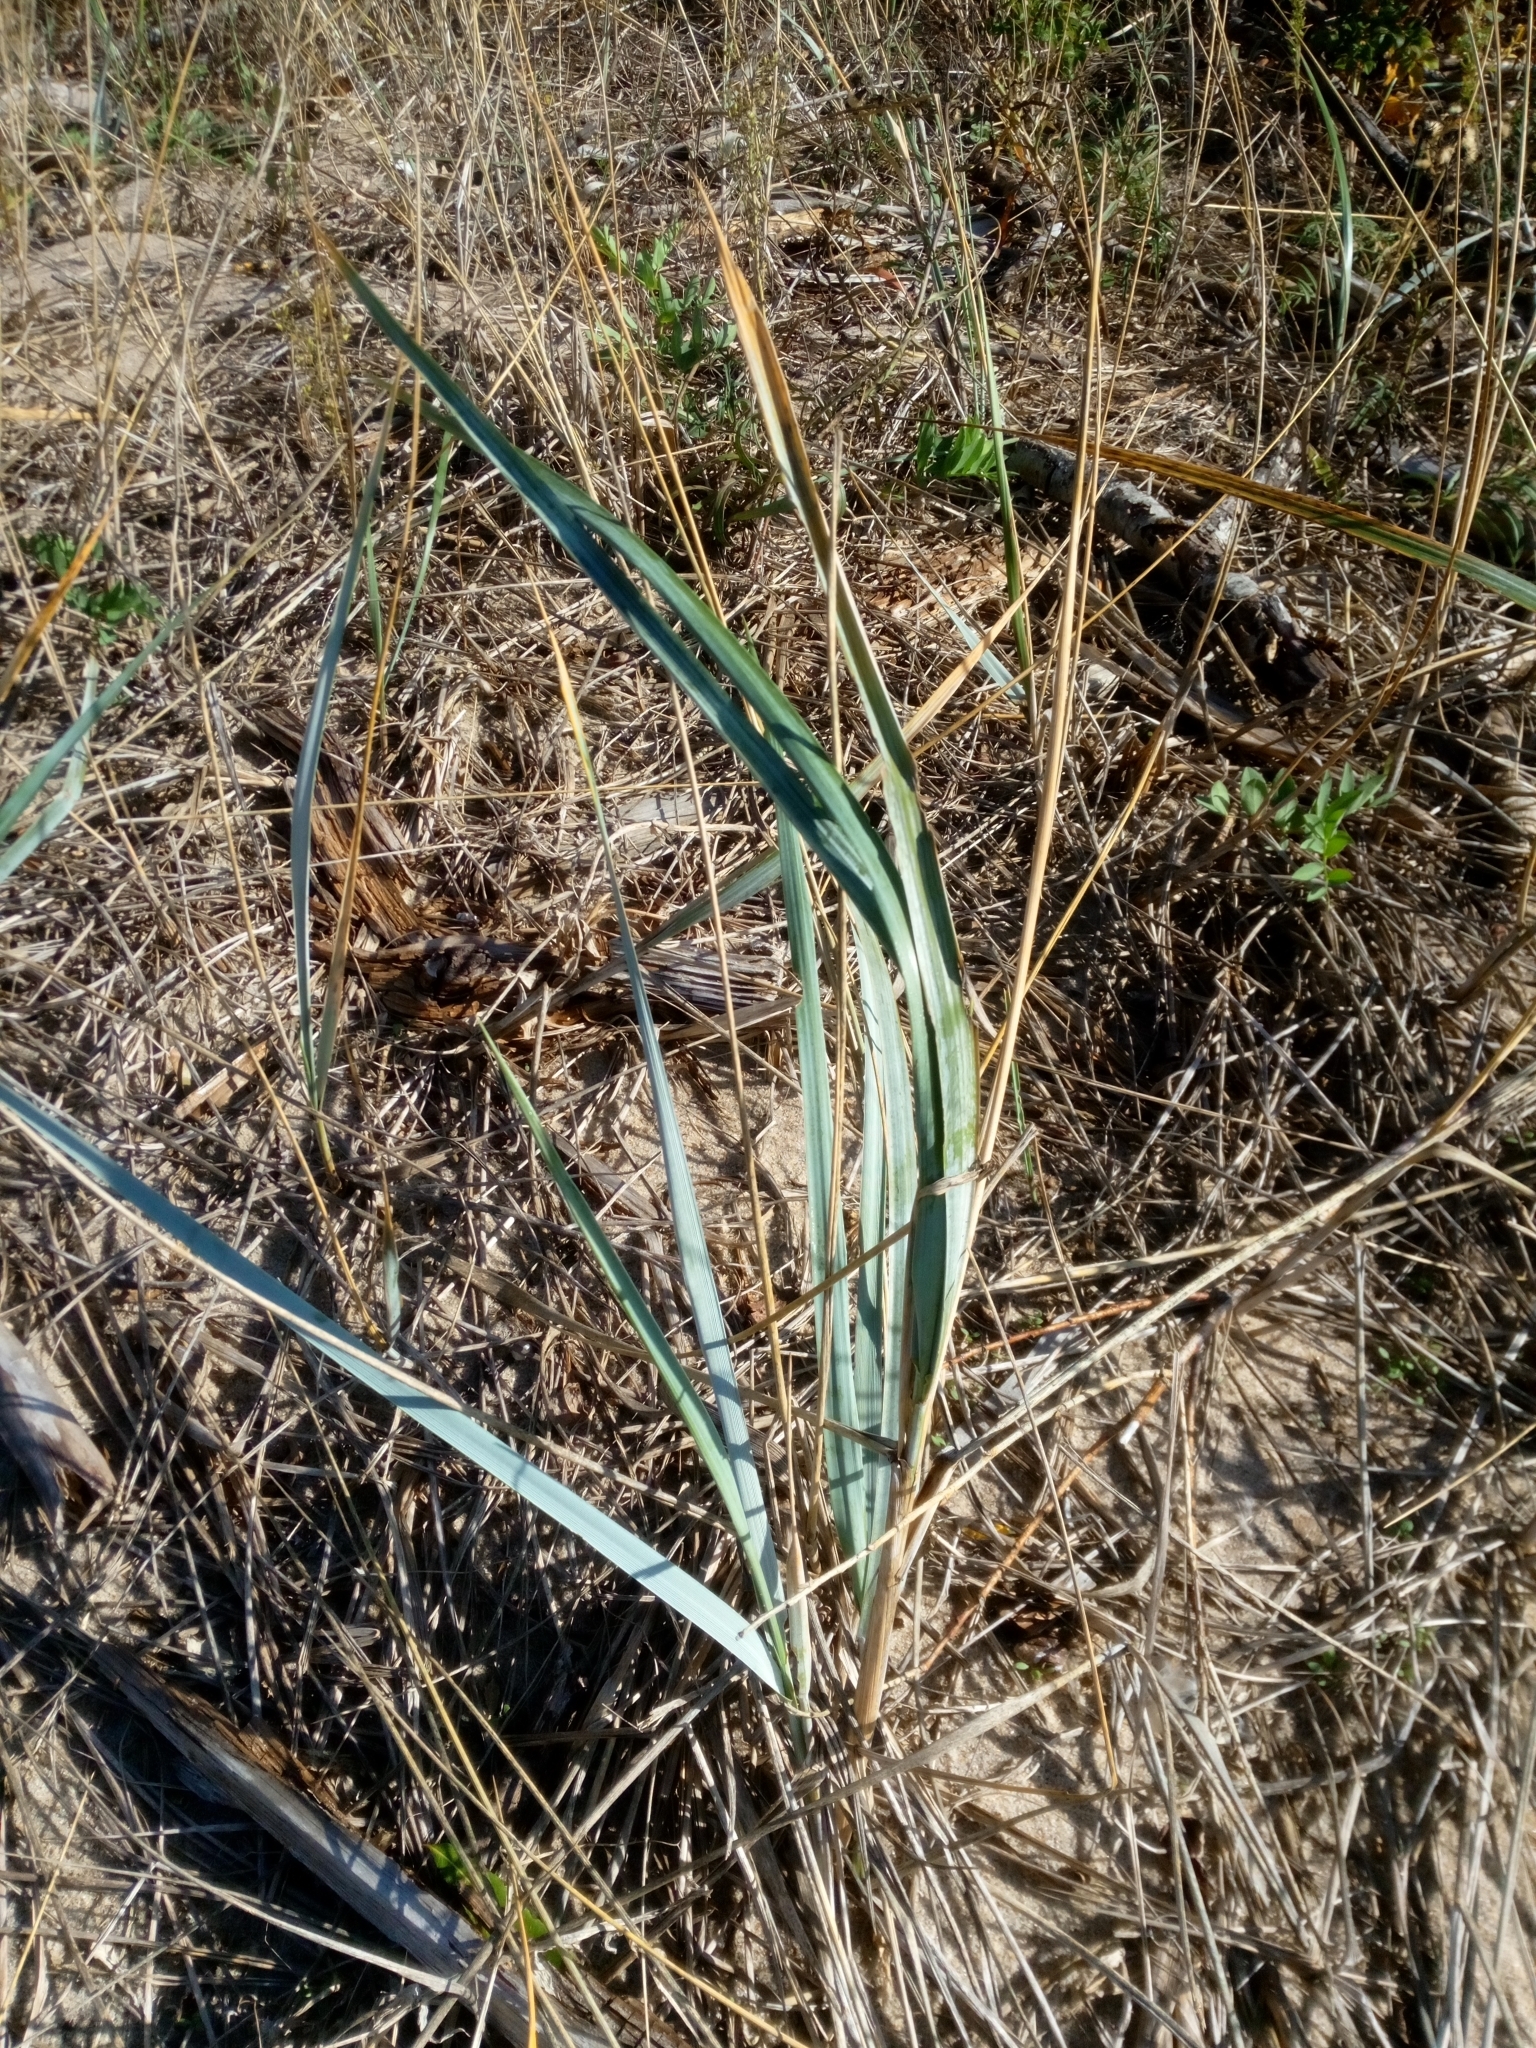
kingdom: Plantae
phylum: Tracheophyta
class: Liliopsida
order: Poales
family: Poaceae
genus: Leymus
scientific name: Leymus arenarius
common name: Lyme-grass
